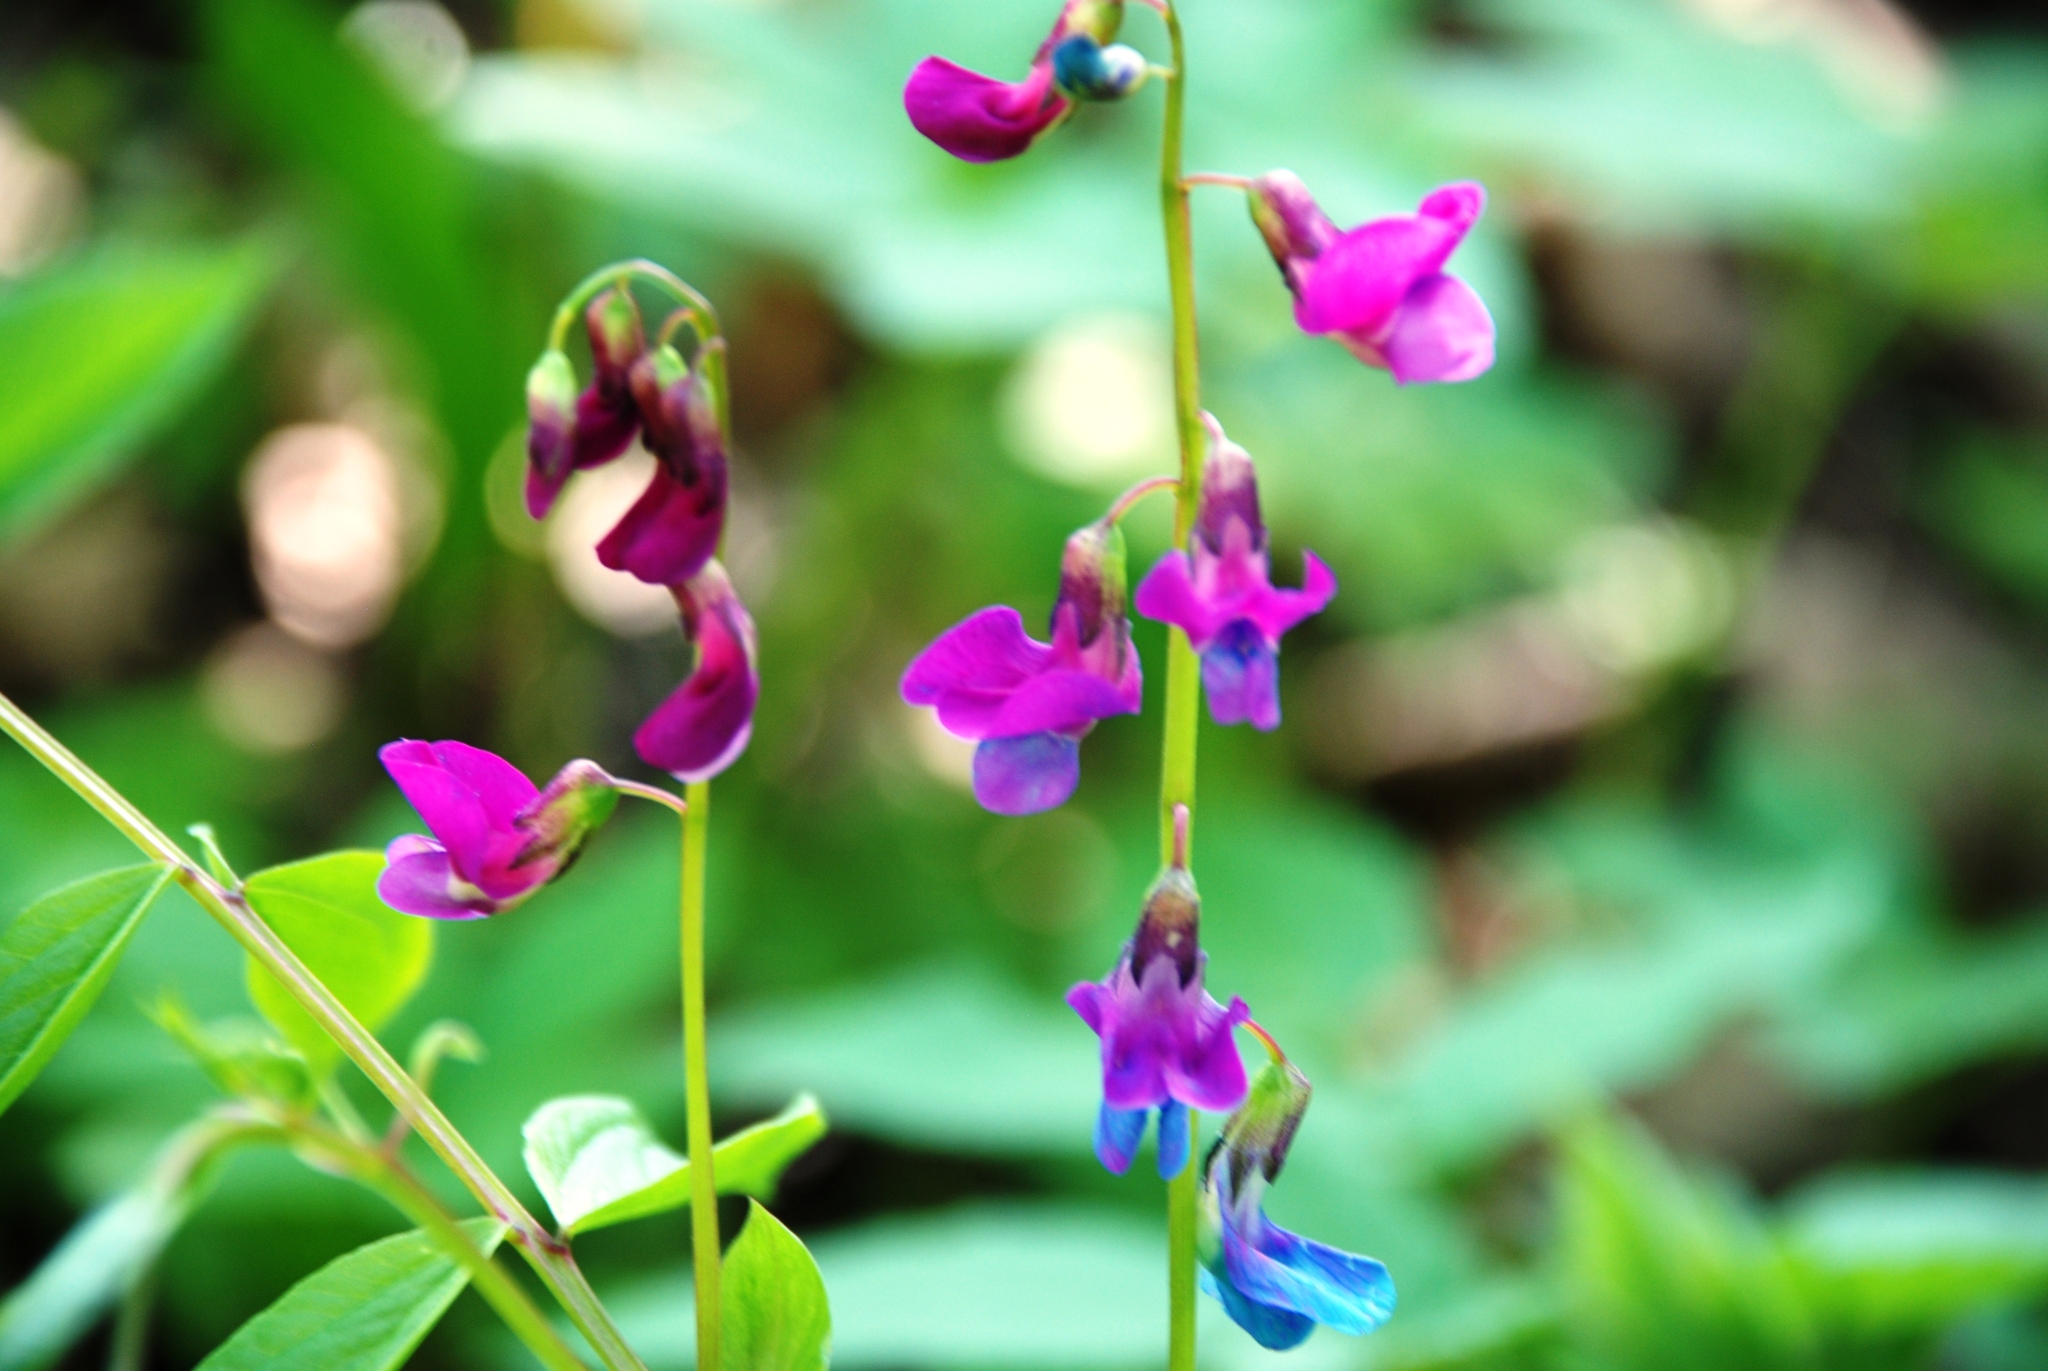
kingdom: Plantae
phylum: Tracheophyta
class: Magnoliopsida
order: Fabales
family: Fabaceae
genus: Lathyrus
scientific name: Lathyrus vernus
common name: Spring pea
